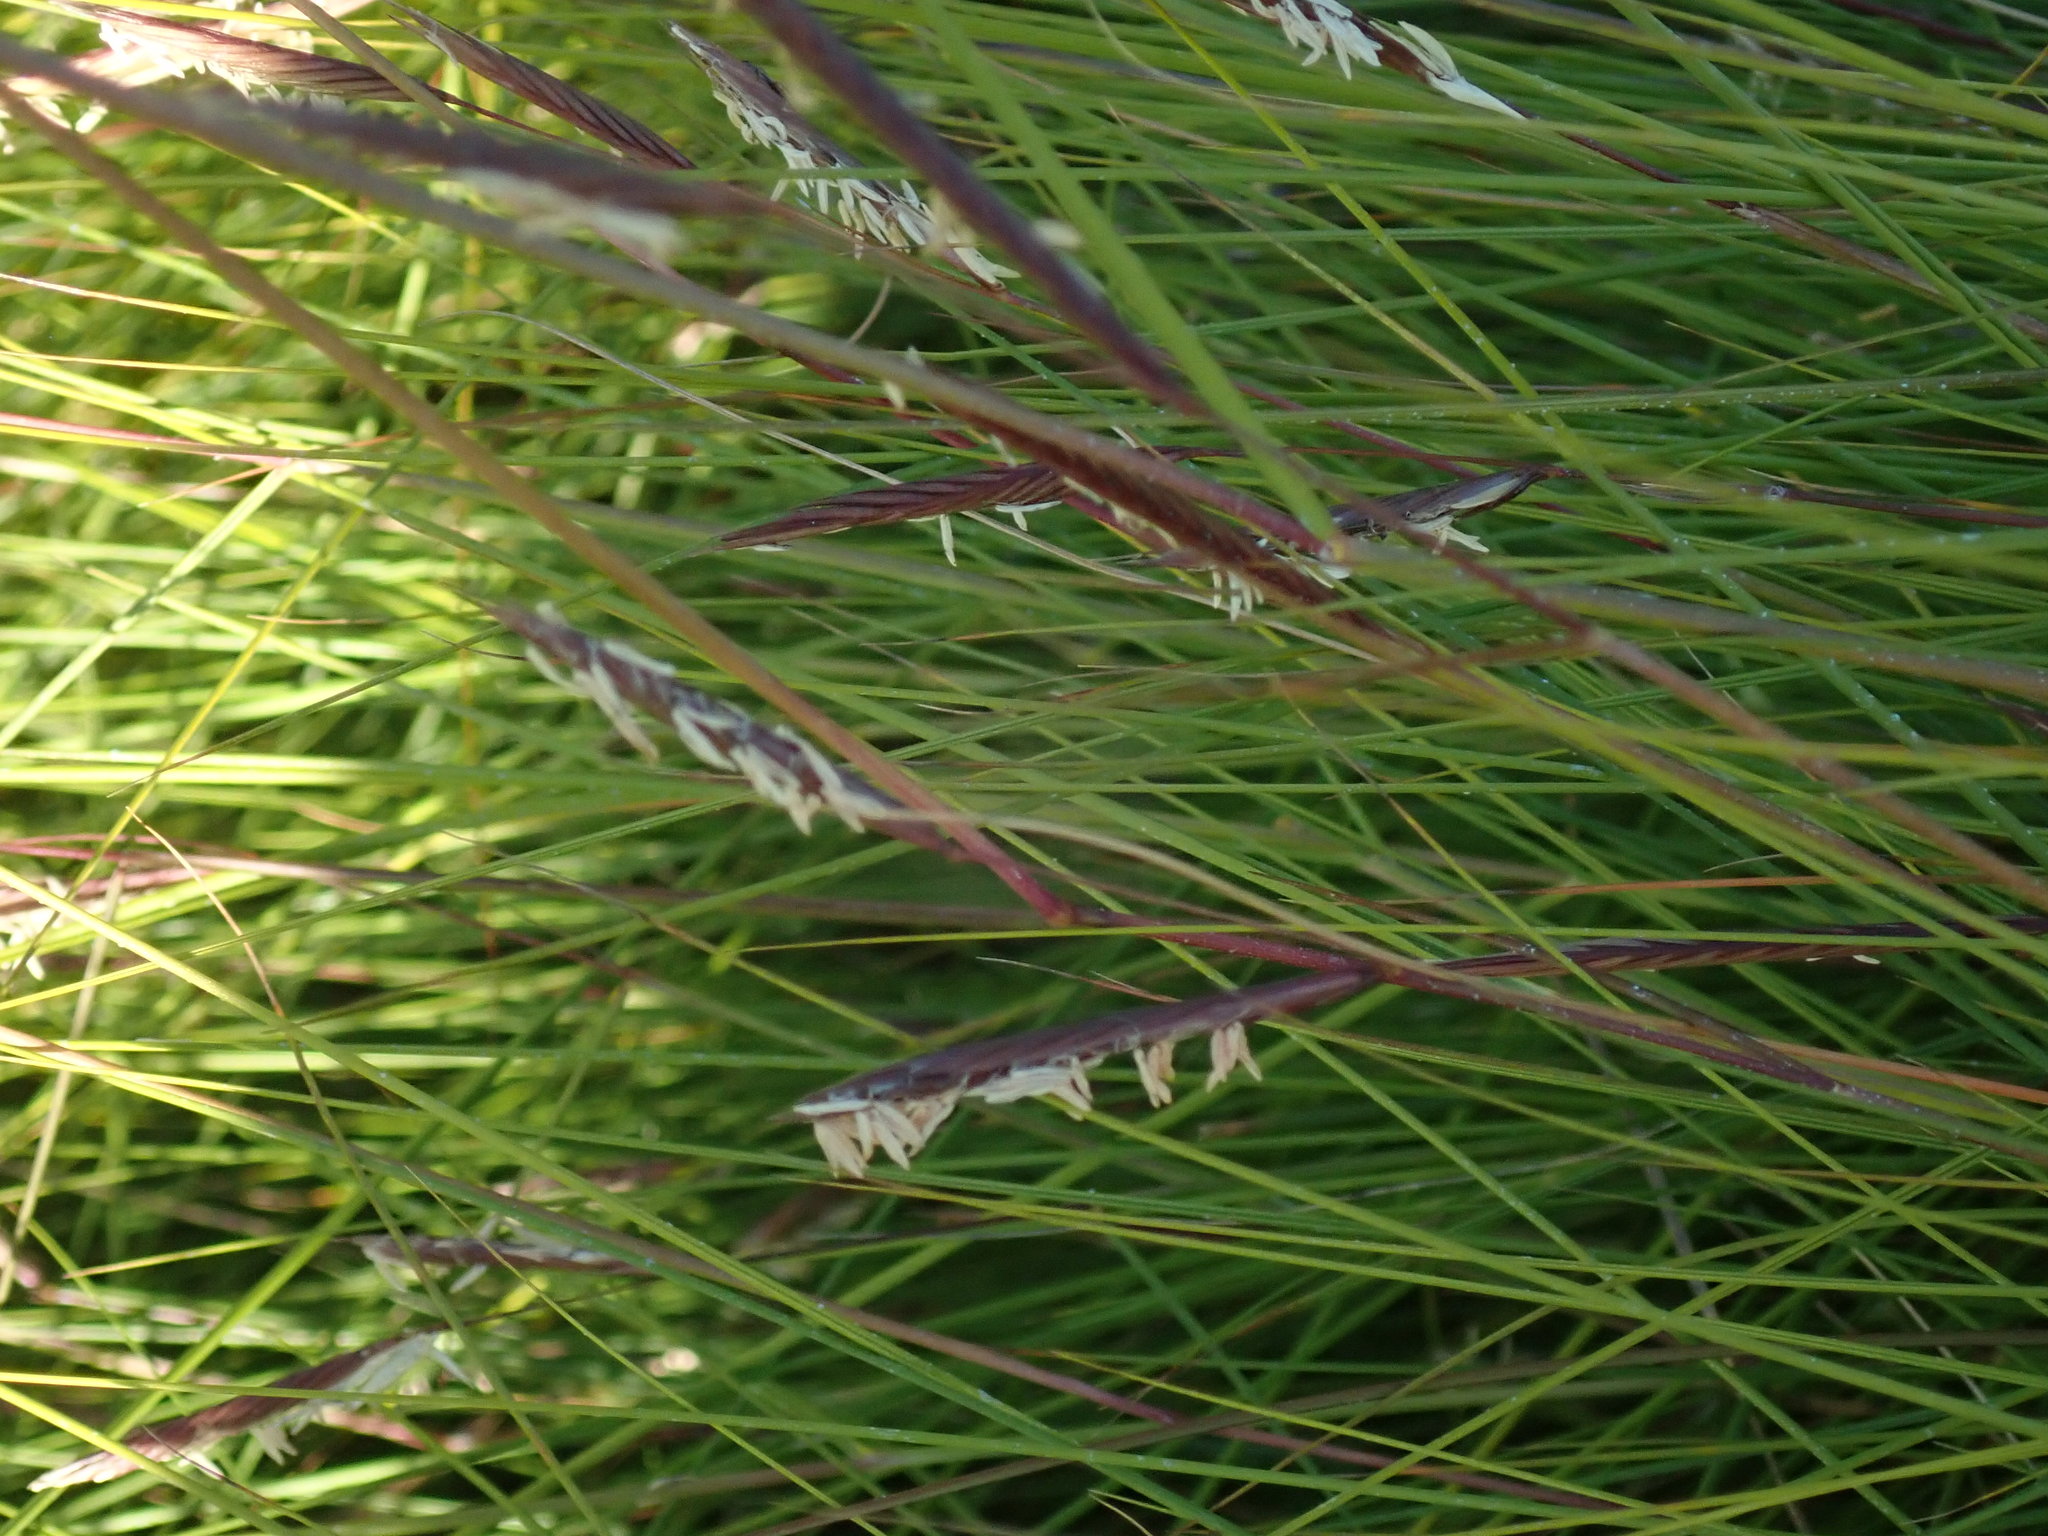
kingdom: Plantae
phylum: Tracheophyta
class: Liliopsida
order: Poales
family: Poaceae
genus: Sporobolus
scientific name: Sporobolus pumilus
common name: Highwater grass
